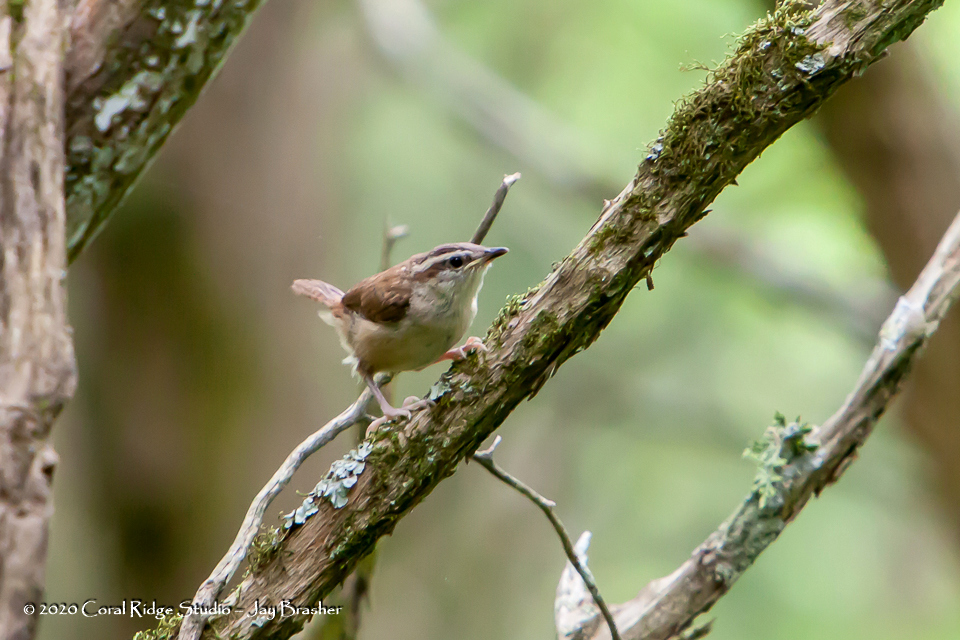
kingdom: Animalia
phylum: Chordata
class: Aves
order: Passeriformes
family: Troglodytidae
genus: Thryothorus
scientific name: Thryothorus ludovicianus
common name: Carolina wren
